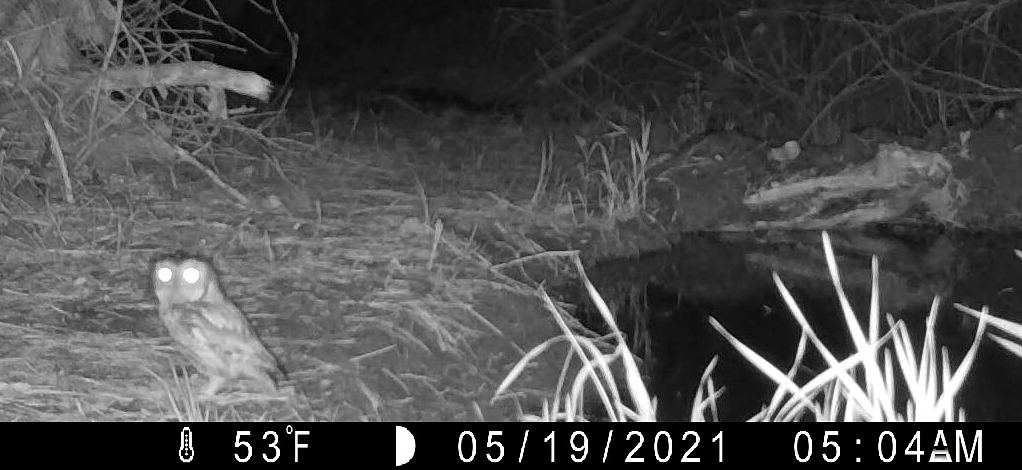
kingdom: Animalia
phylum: Chordata
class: Aves
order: Strigiformes
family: Strigidae
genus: Megascops
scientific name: Megascops asio
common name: Eastern screech-owl
